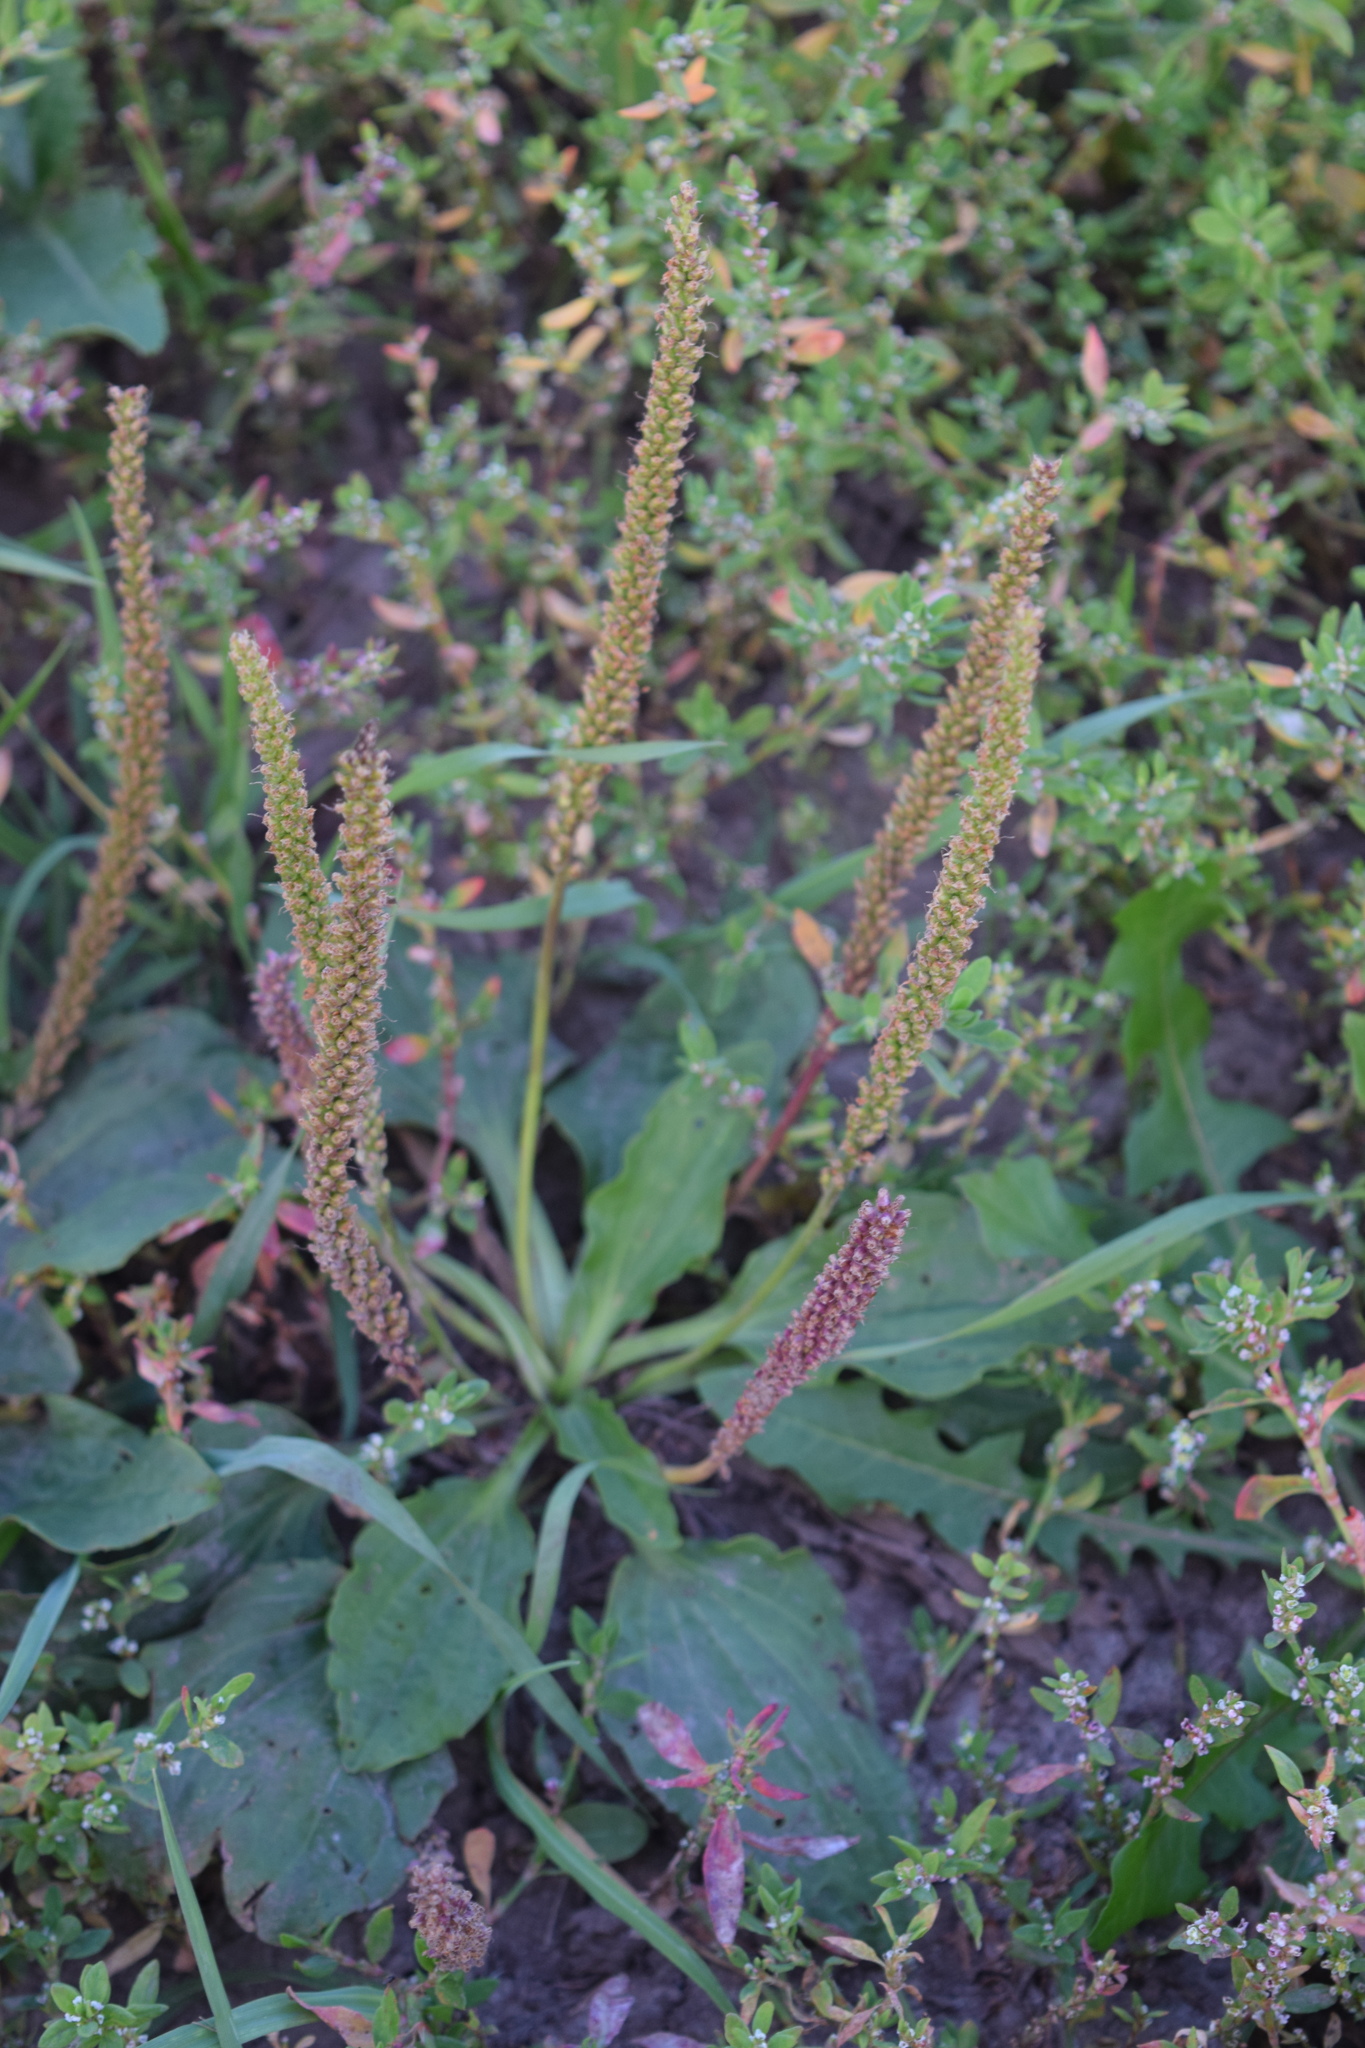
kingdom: Plantae
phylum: Tracheophyta
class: Magnoliopsida
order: Lamiales
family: Plantaginaceae
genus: Plantago
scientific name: Plantago major
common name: Common plantain
